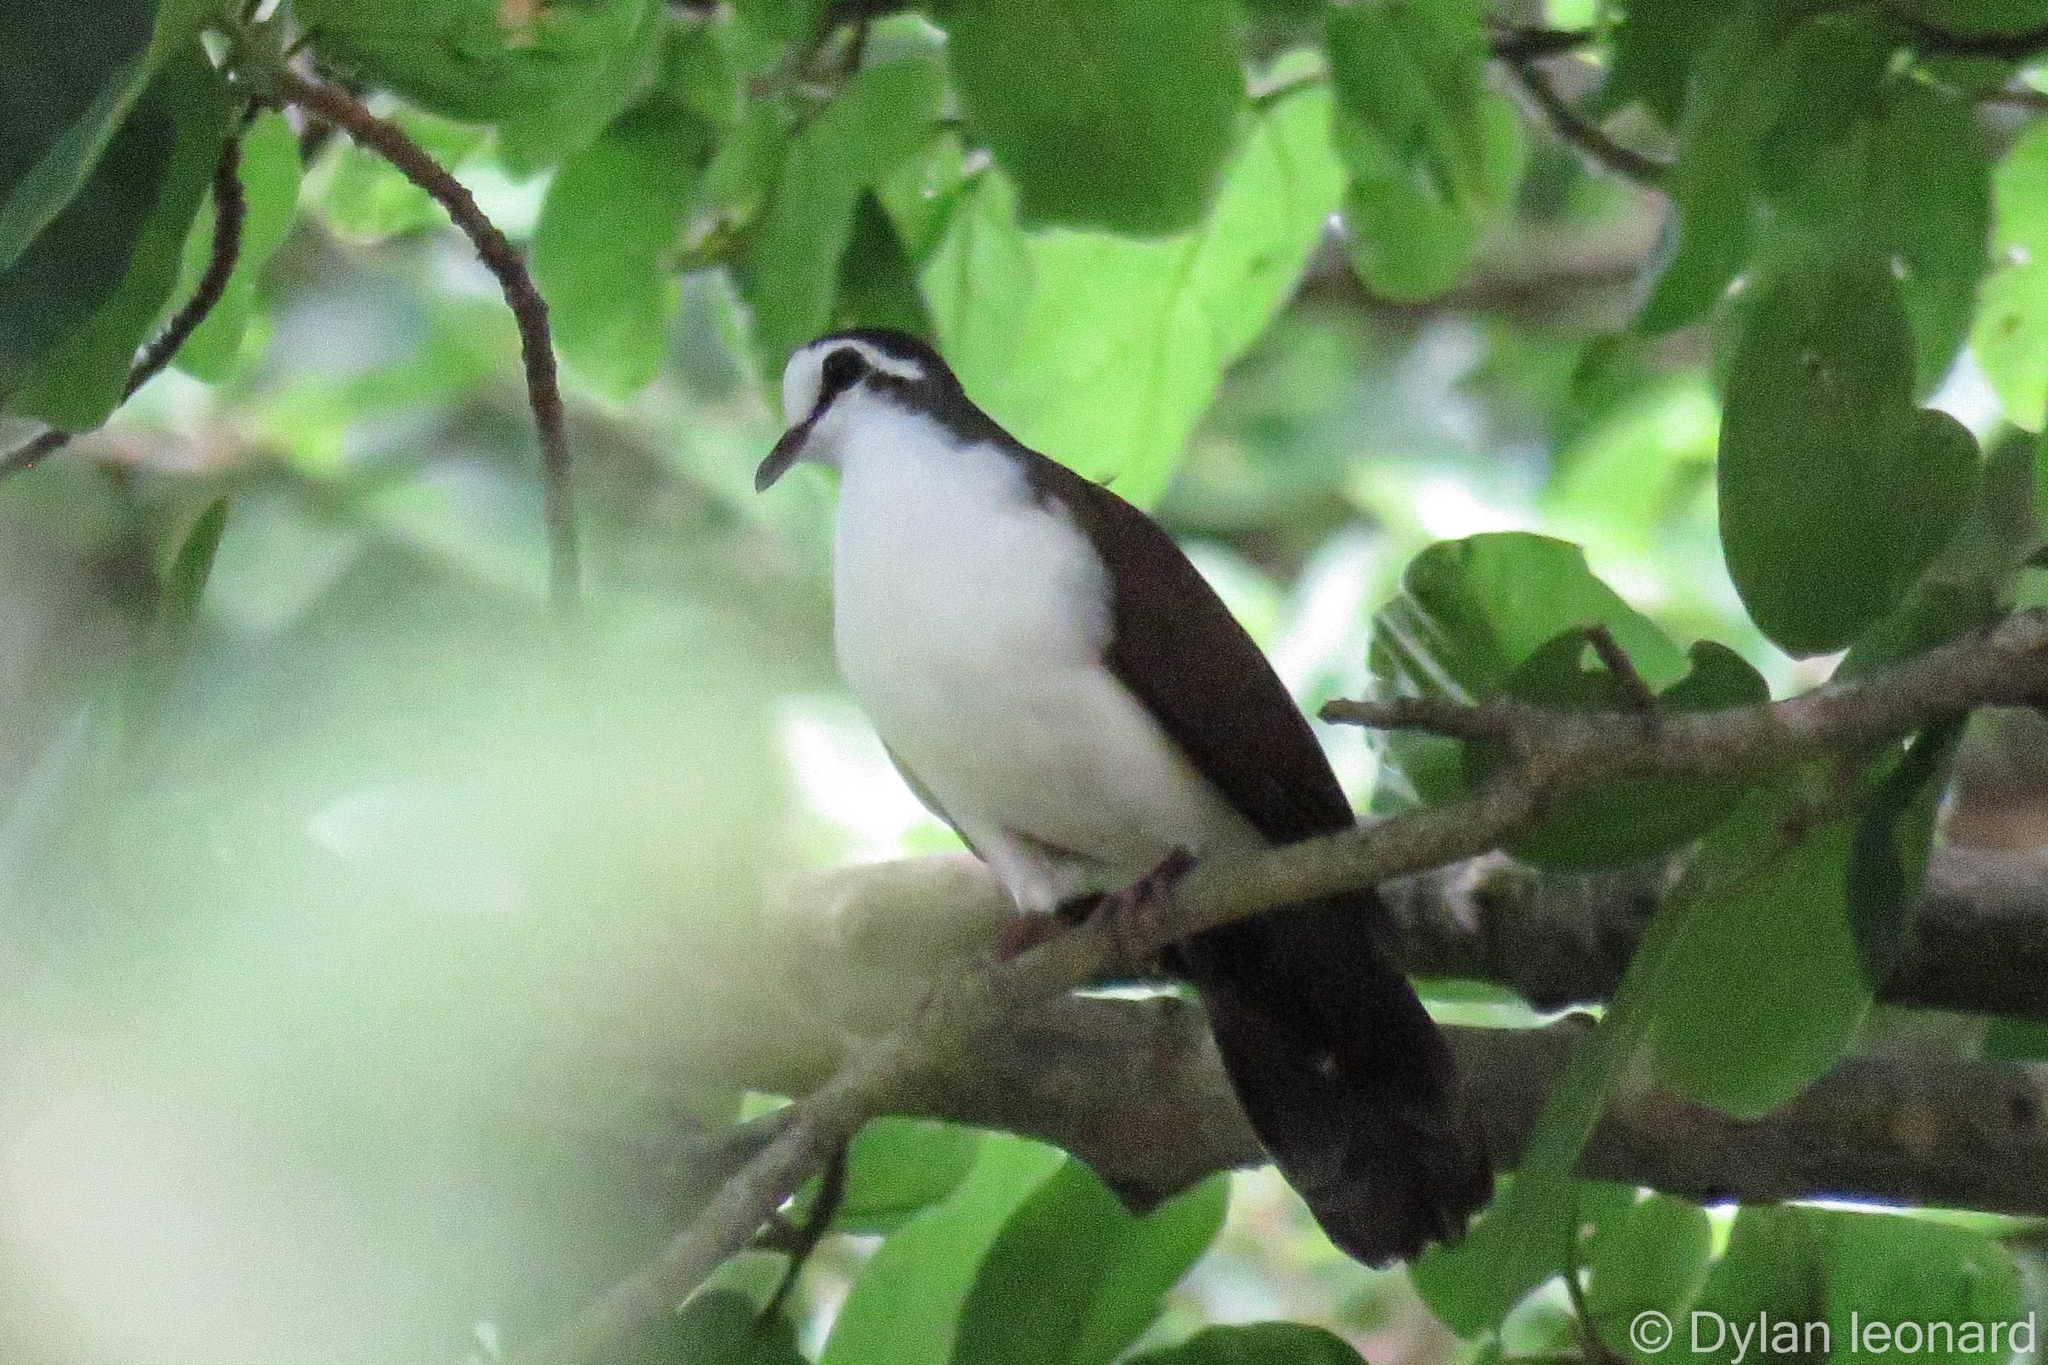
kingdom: Animalia
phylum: Chordata
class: Aves
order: Columbiformes
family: Columbidae
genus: Turtur
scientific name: Turtur tympanistria
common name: Tambourine dove
